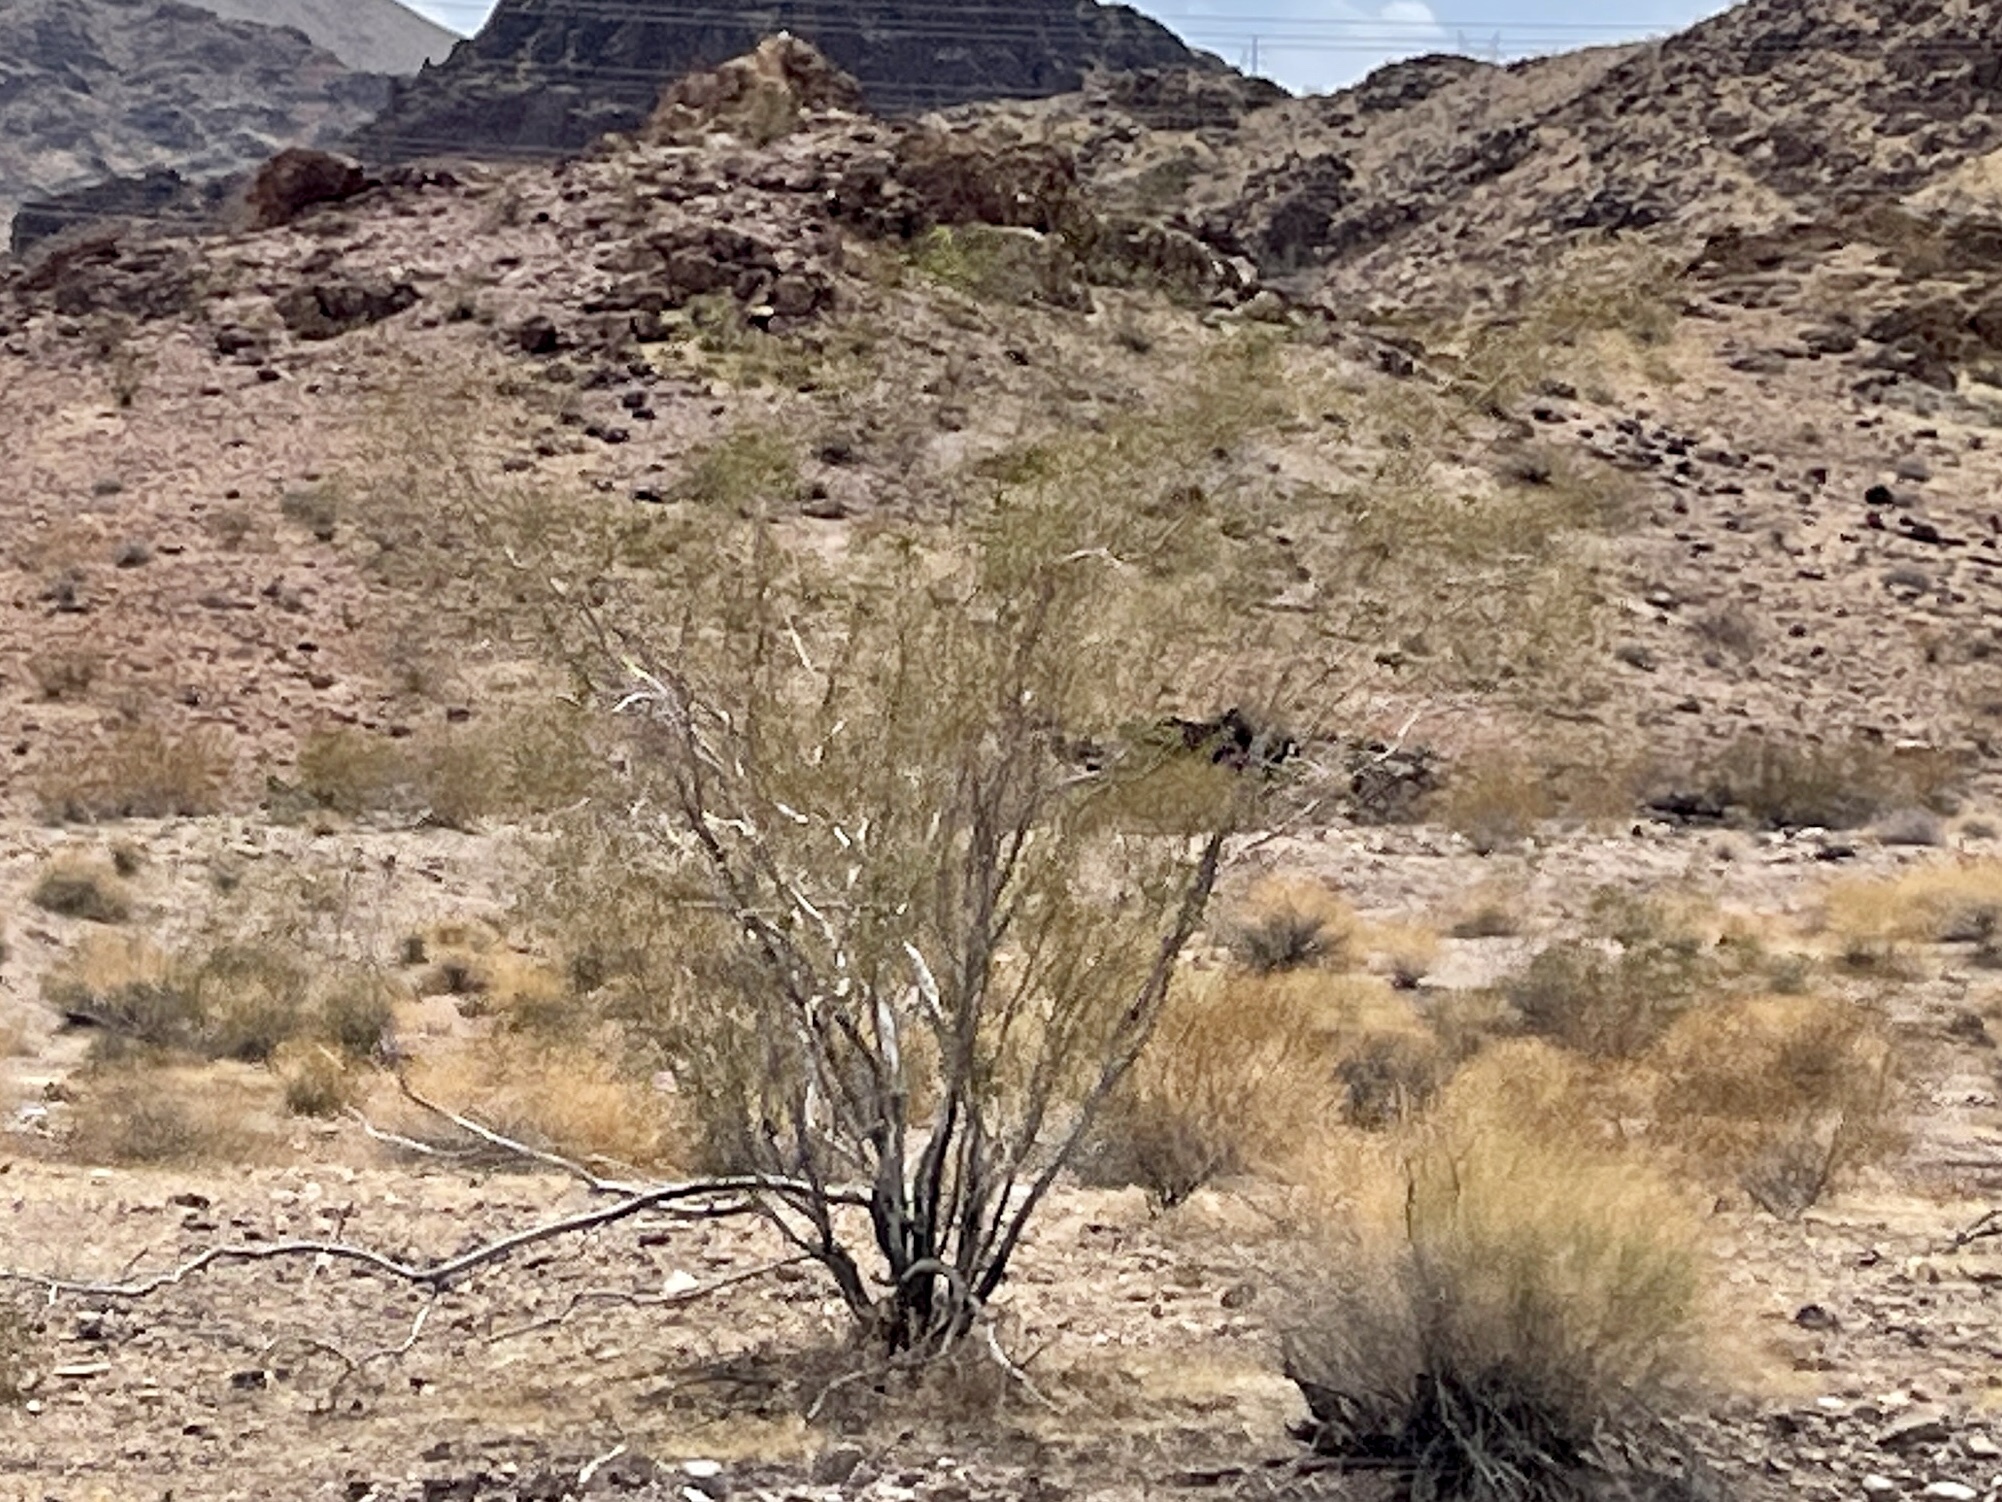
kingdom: Plantae
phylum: Tracheophyta
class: Magnoliopsida
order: Zygophyllales
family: Zygophyllaceae
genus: Larrea
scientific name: Larrea tridentata
